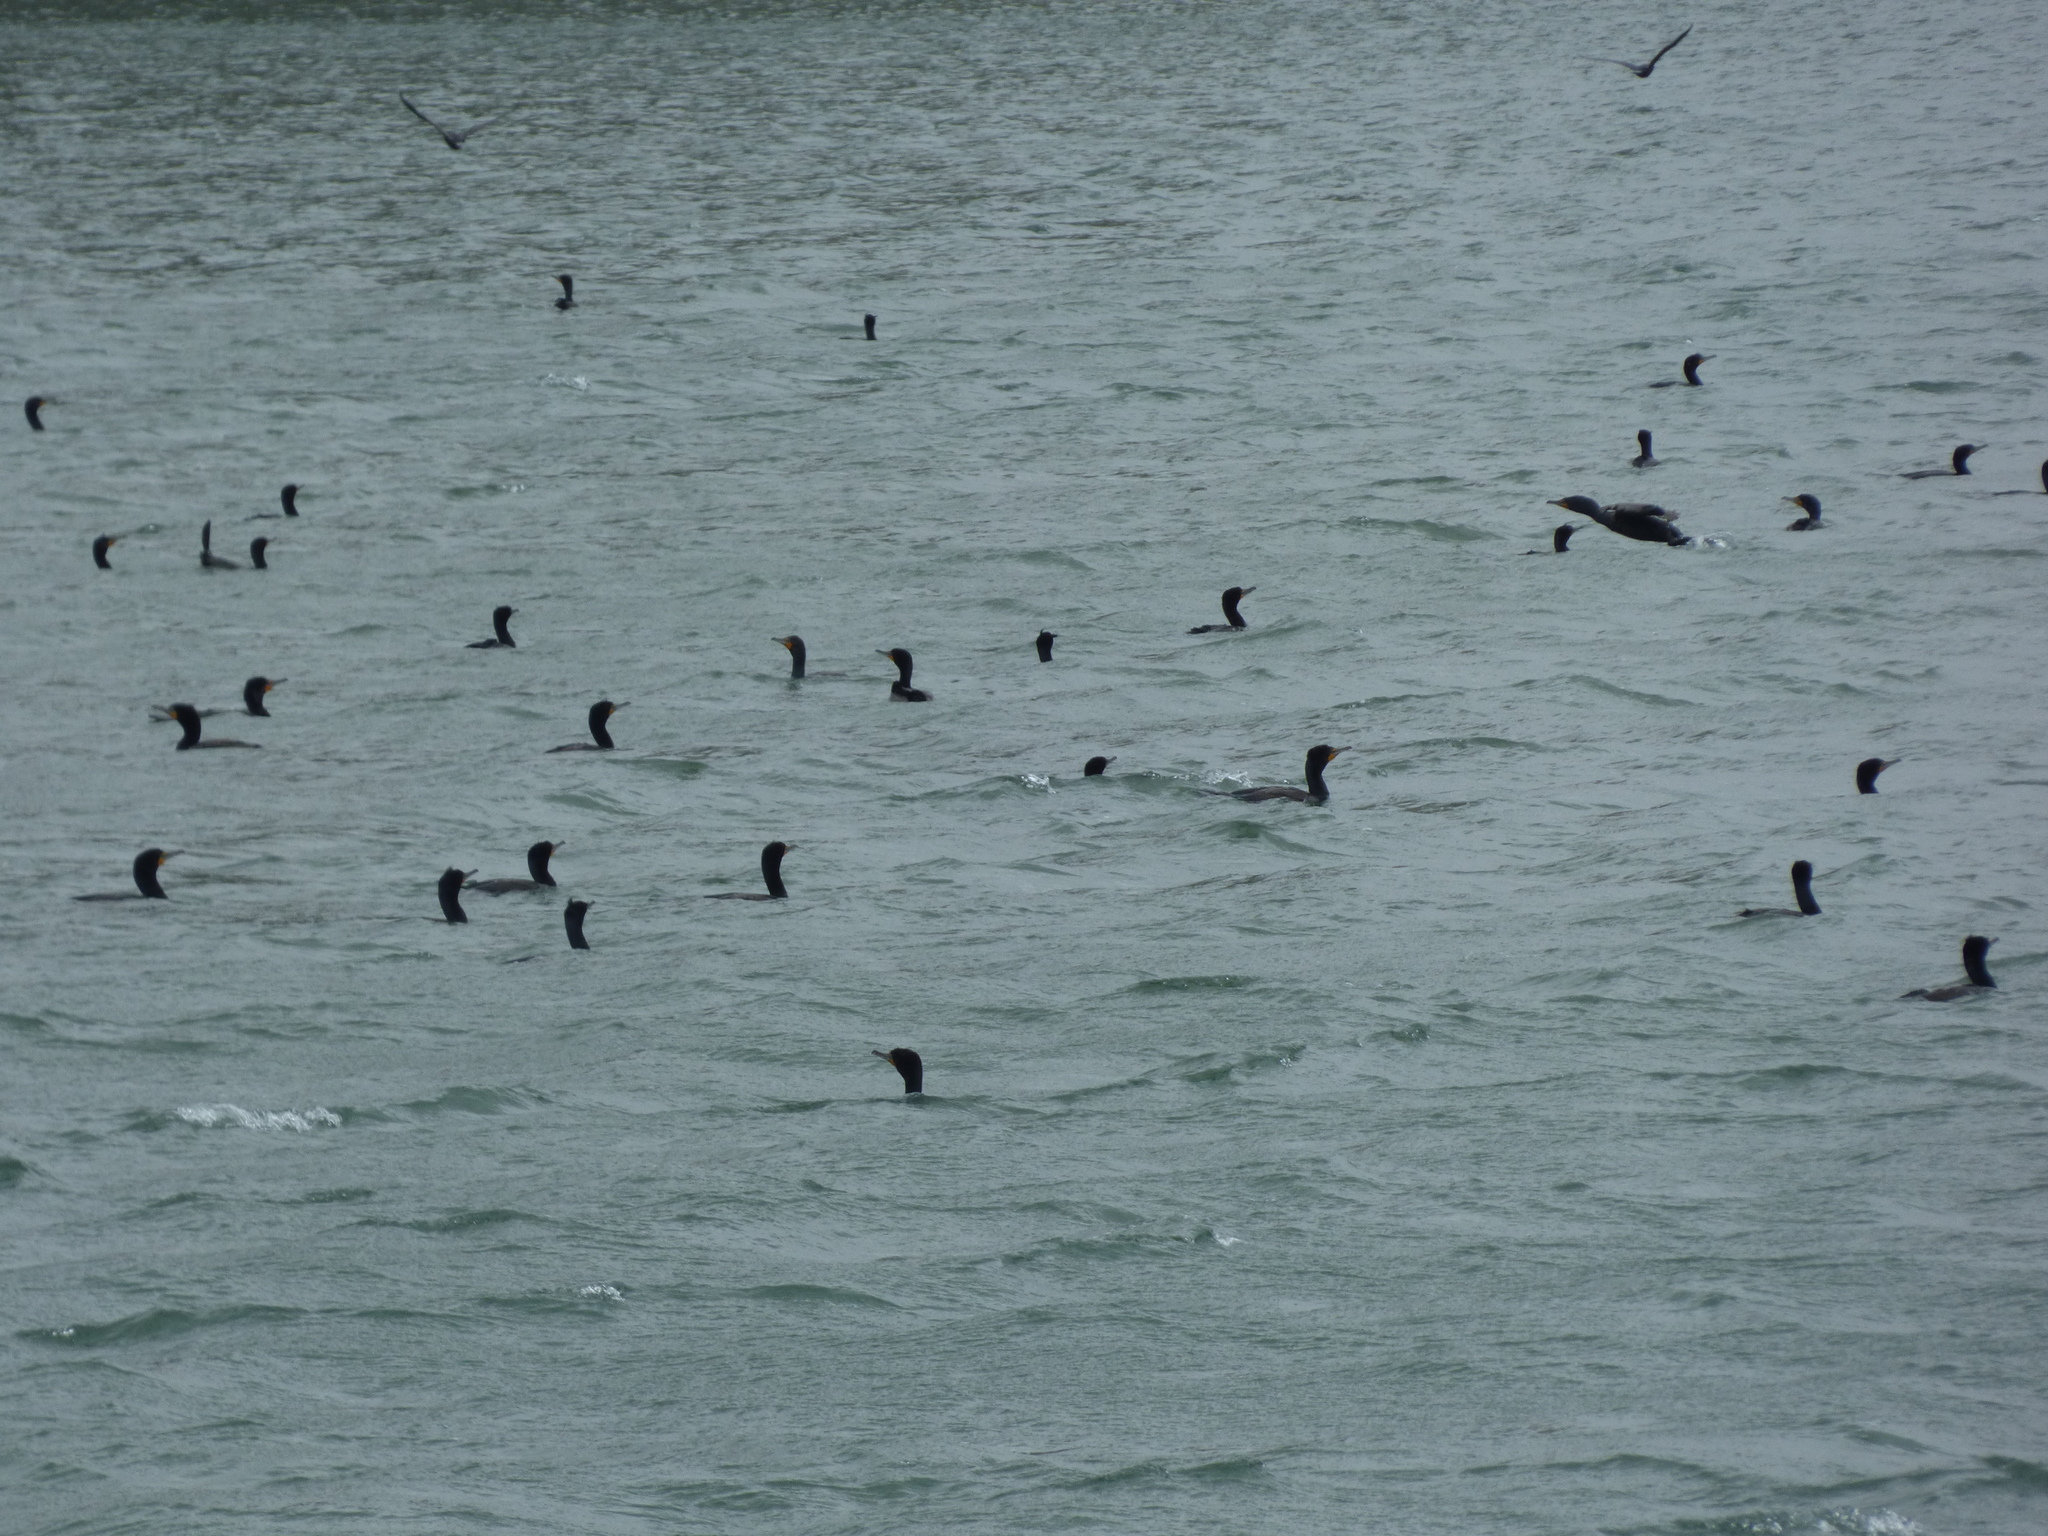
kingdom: Animalia
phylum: Chordata
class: Aves
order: Suliformes
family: Phalacrocoracidae
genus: Phalacrocorax
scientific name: Phalacrocorax auritus
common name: Double-crested cormorant
